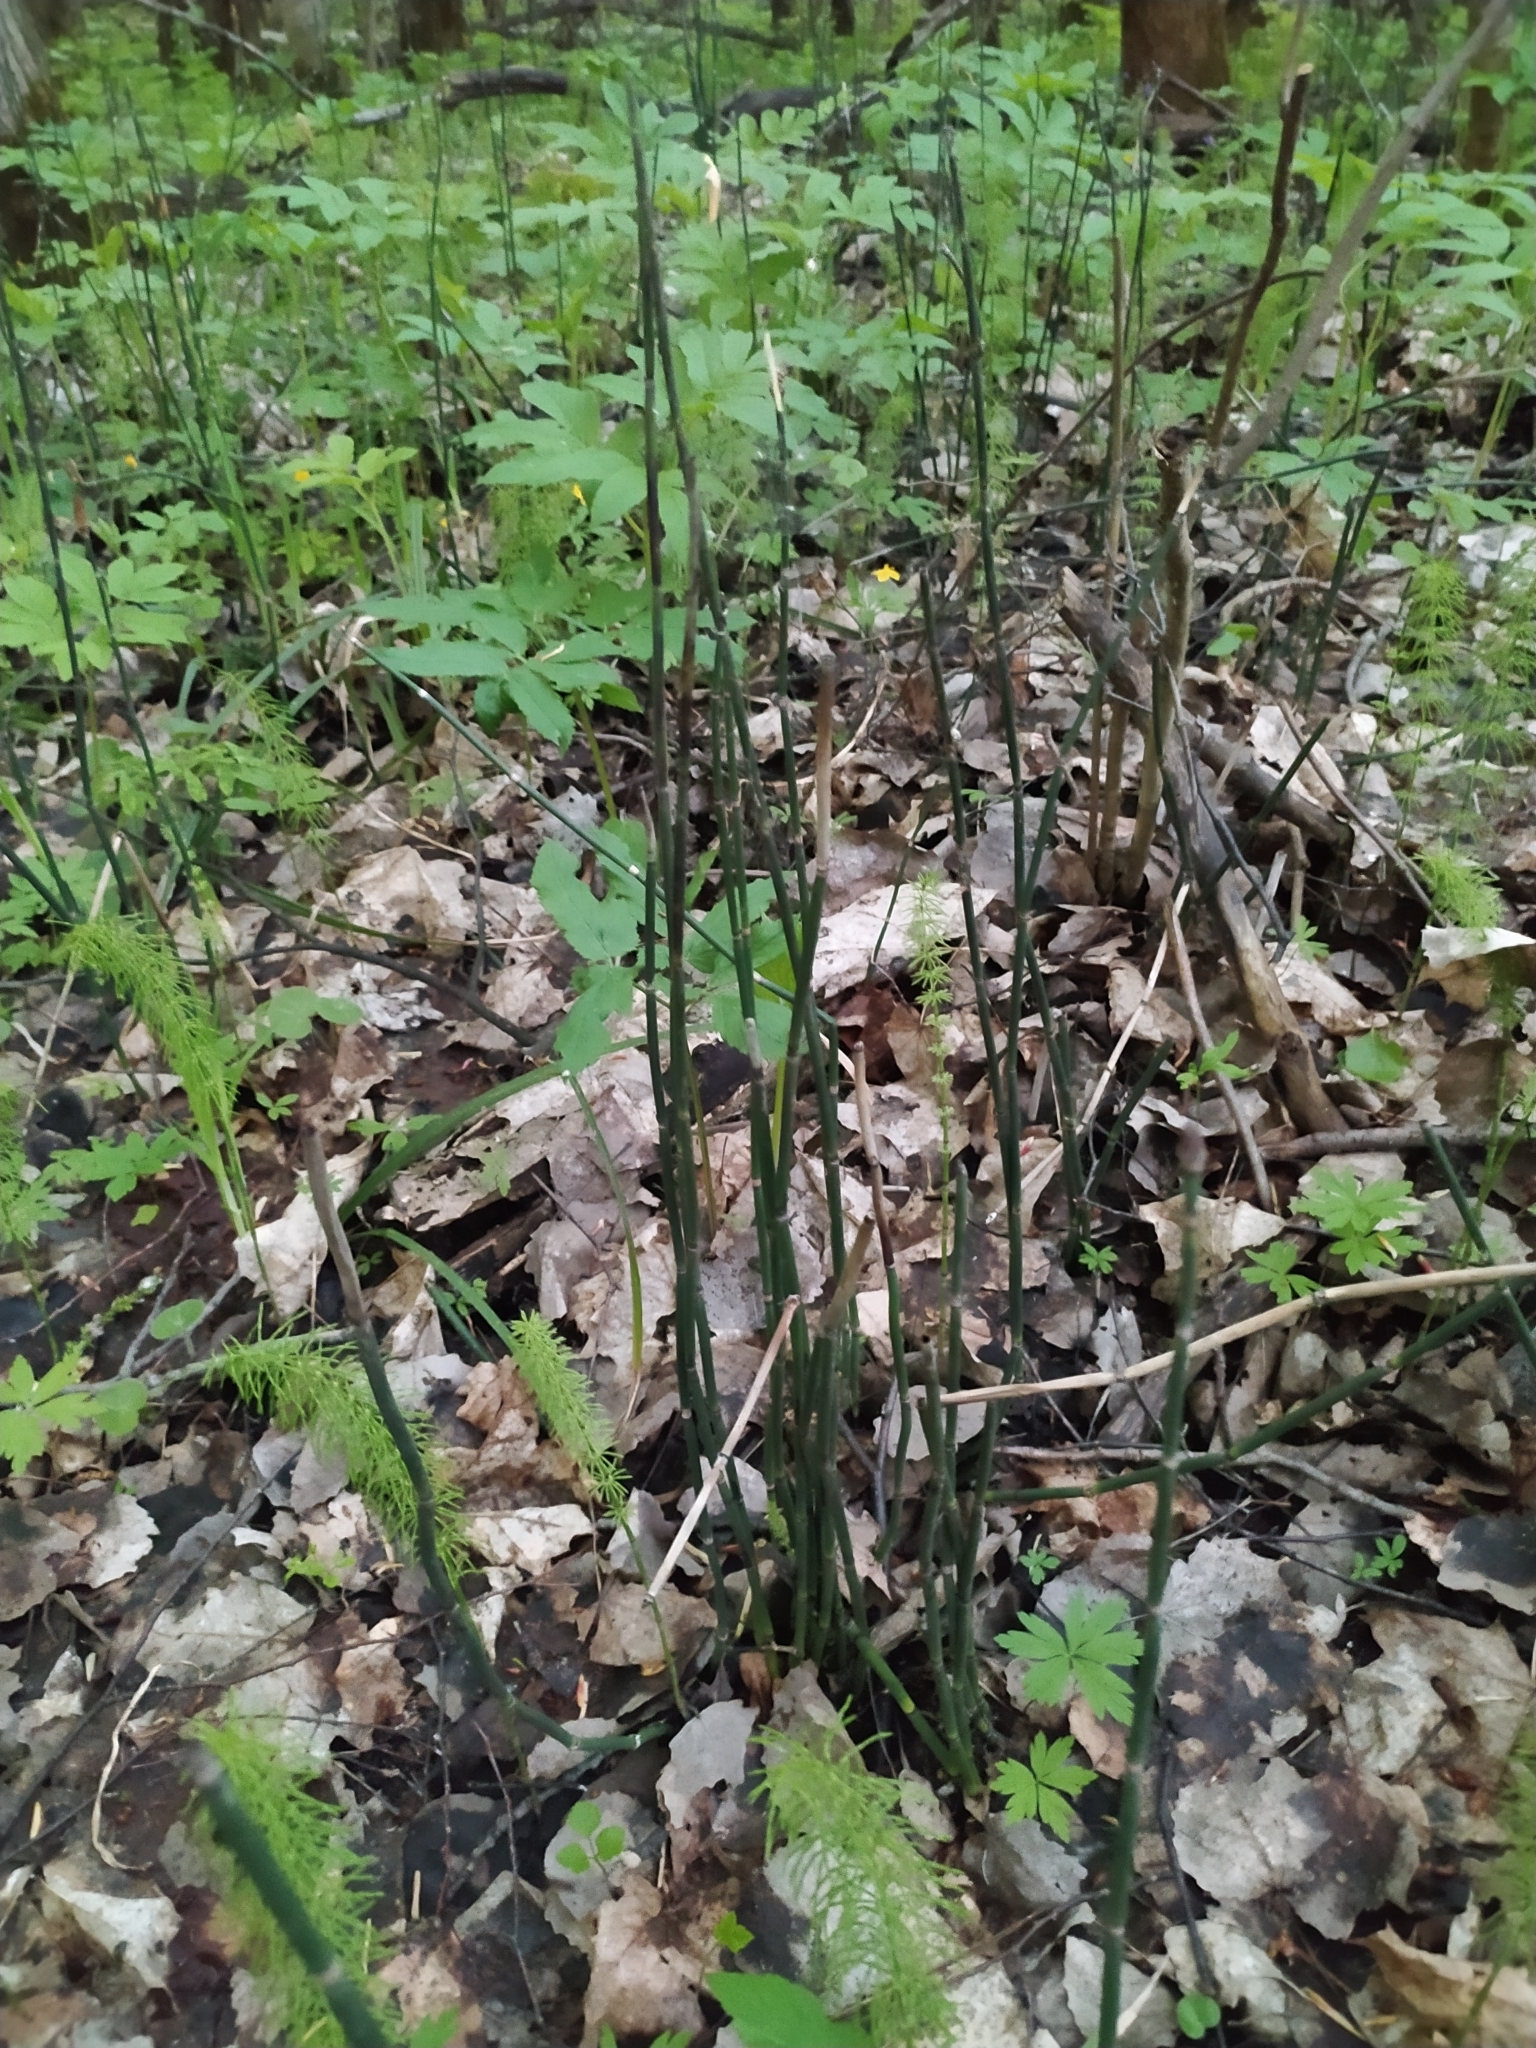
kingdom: Plantae
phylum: Tracheophyta
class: Polypodiopsida
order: Equisetales
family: Equisetaceae
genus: Equisetum
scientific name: Equisetum hyemale
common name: Rough horsetail
